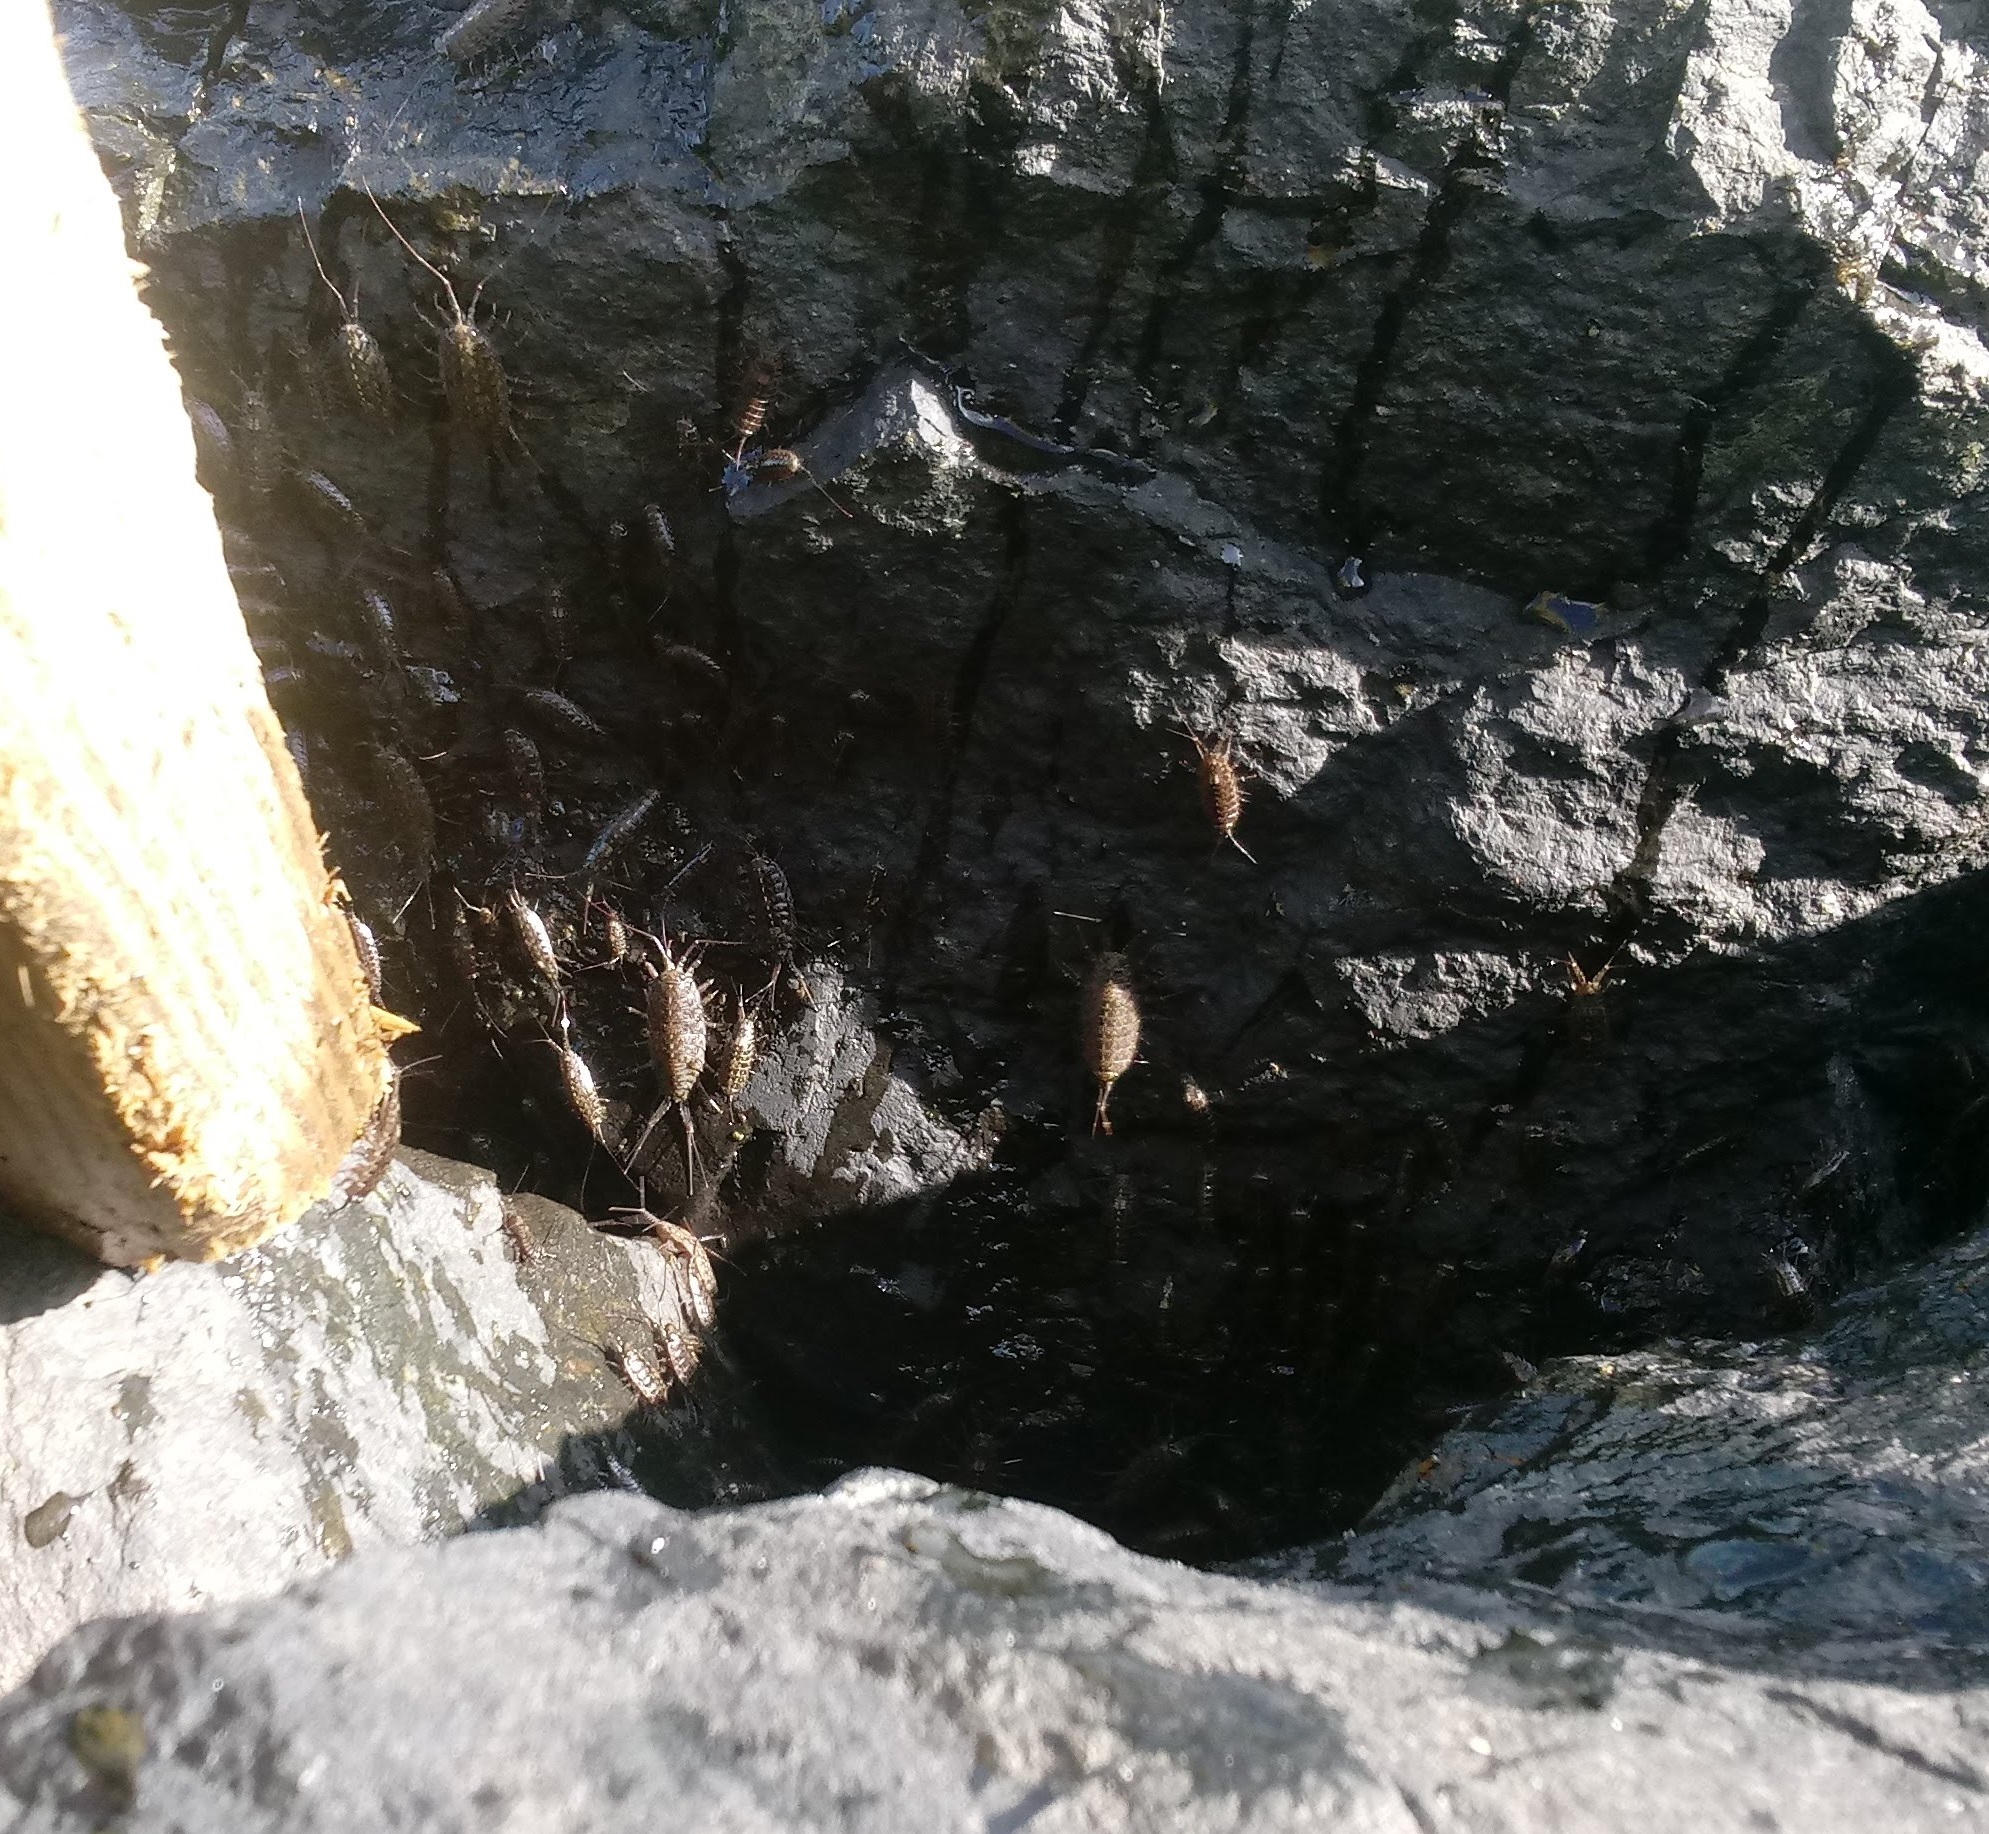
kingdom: Animalia
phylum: Arthropoda
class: Malacostraca
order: Isopoda
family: Ligiidae
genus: Ligia
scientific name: Ligia exotica
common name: Wharf roach
